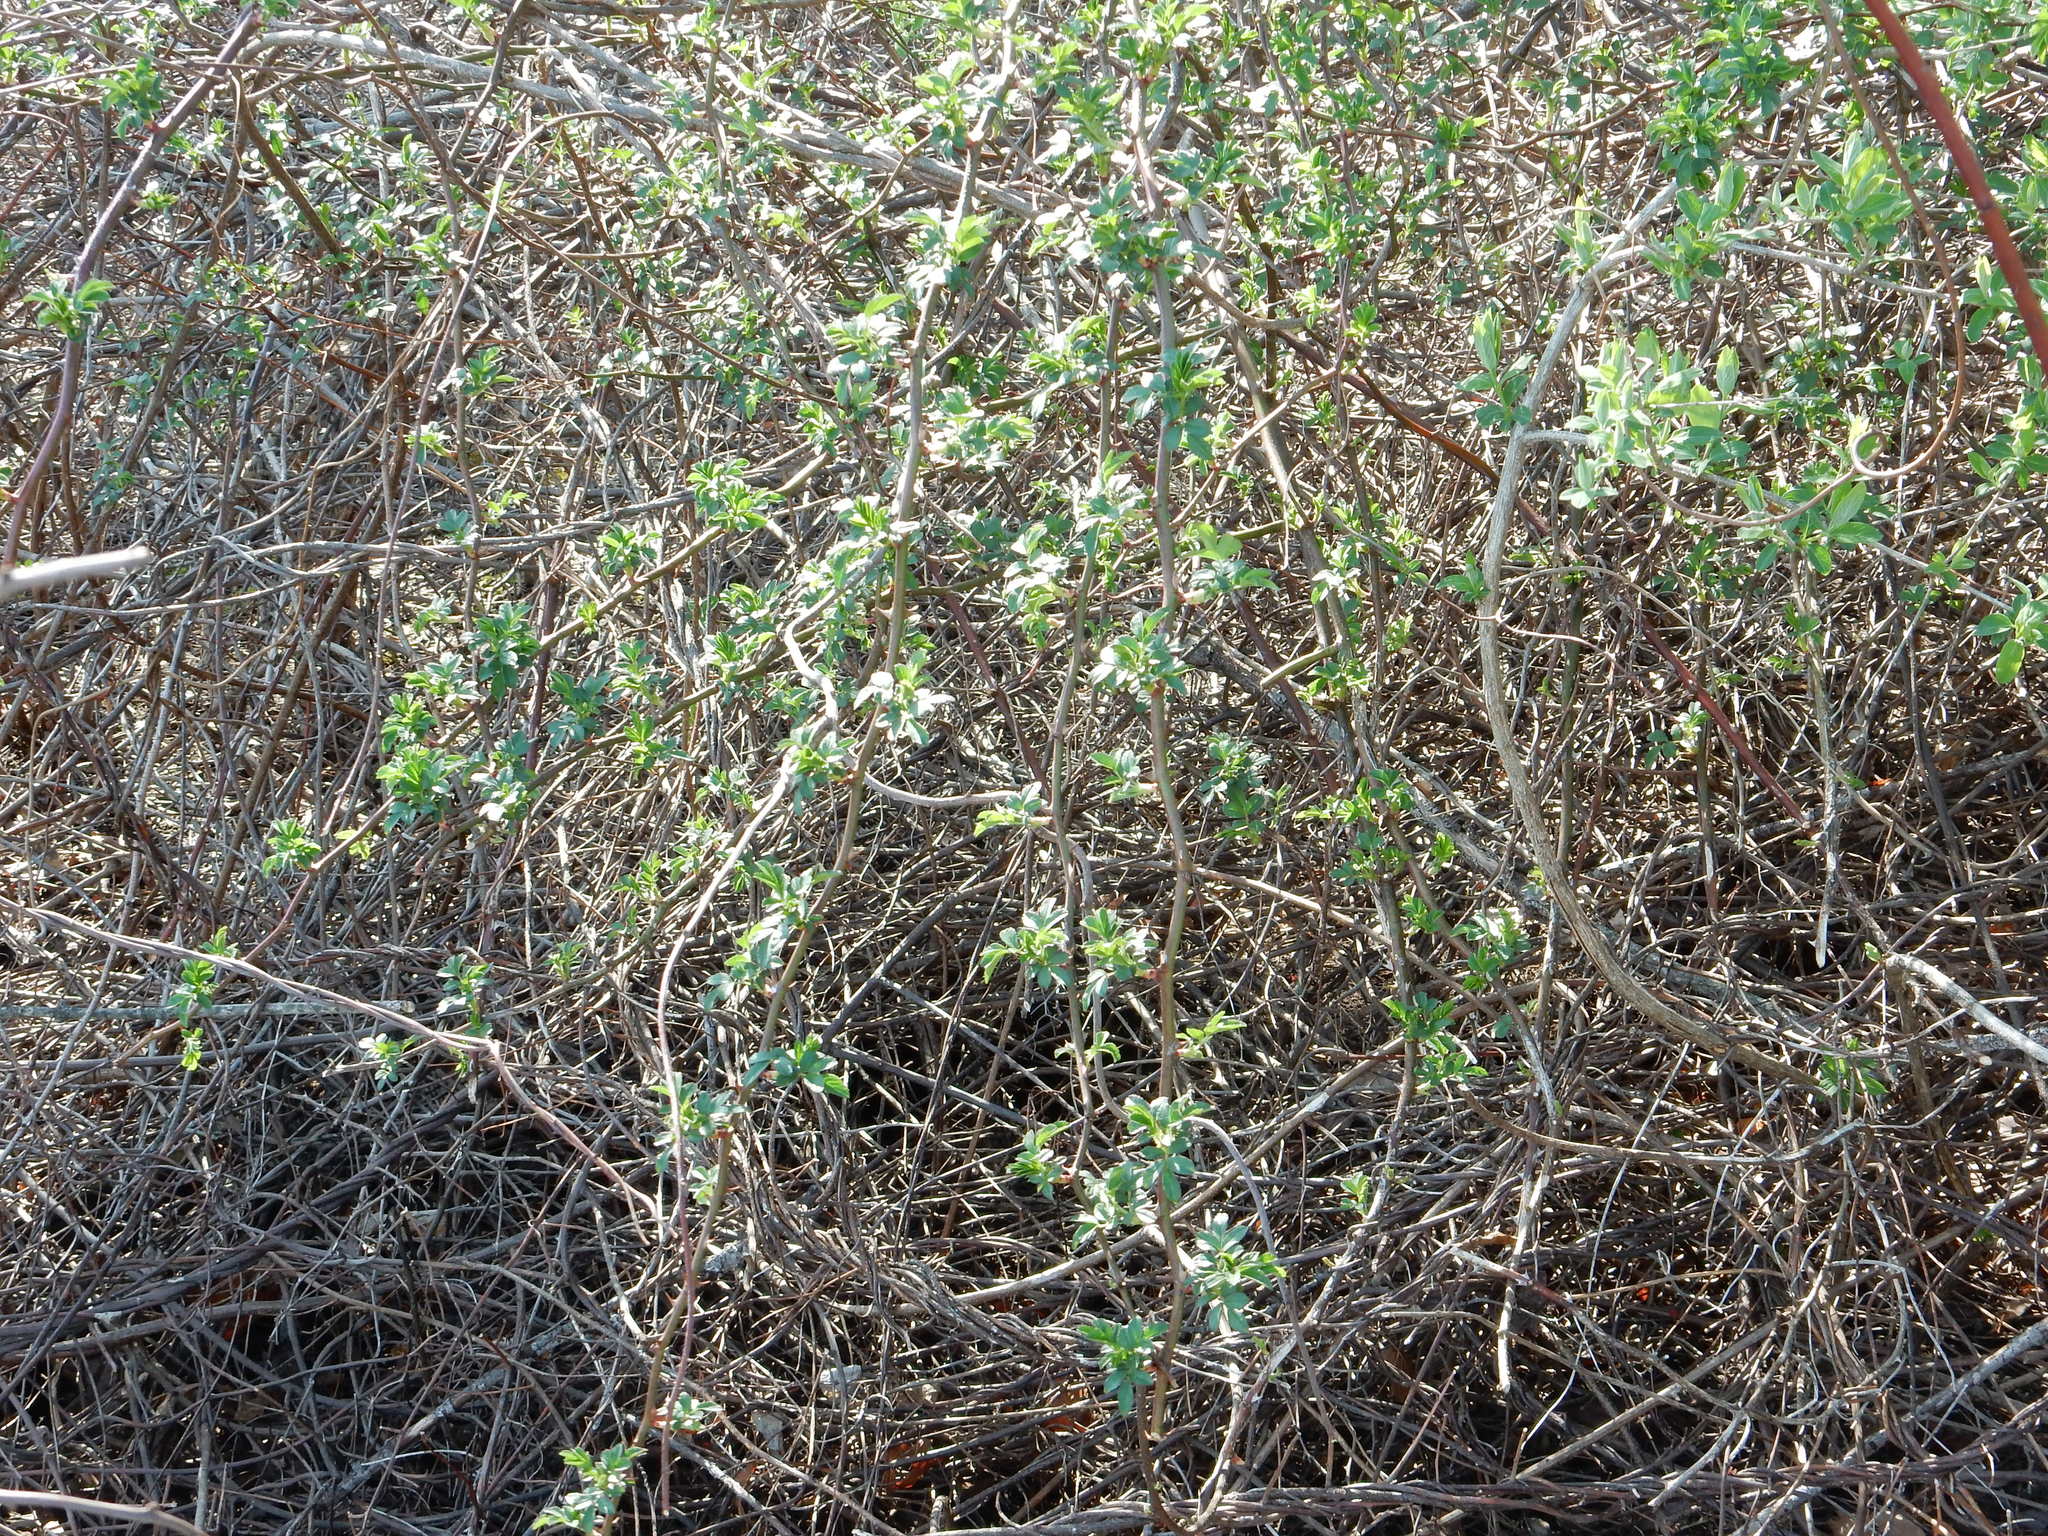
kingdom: Plantae
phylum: Tracheophyta
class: Magnoliopsida
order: Rosales
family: Rosaceae
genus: Rosa
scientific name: Rosa multiflora
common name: Multiflora rose
